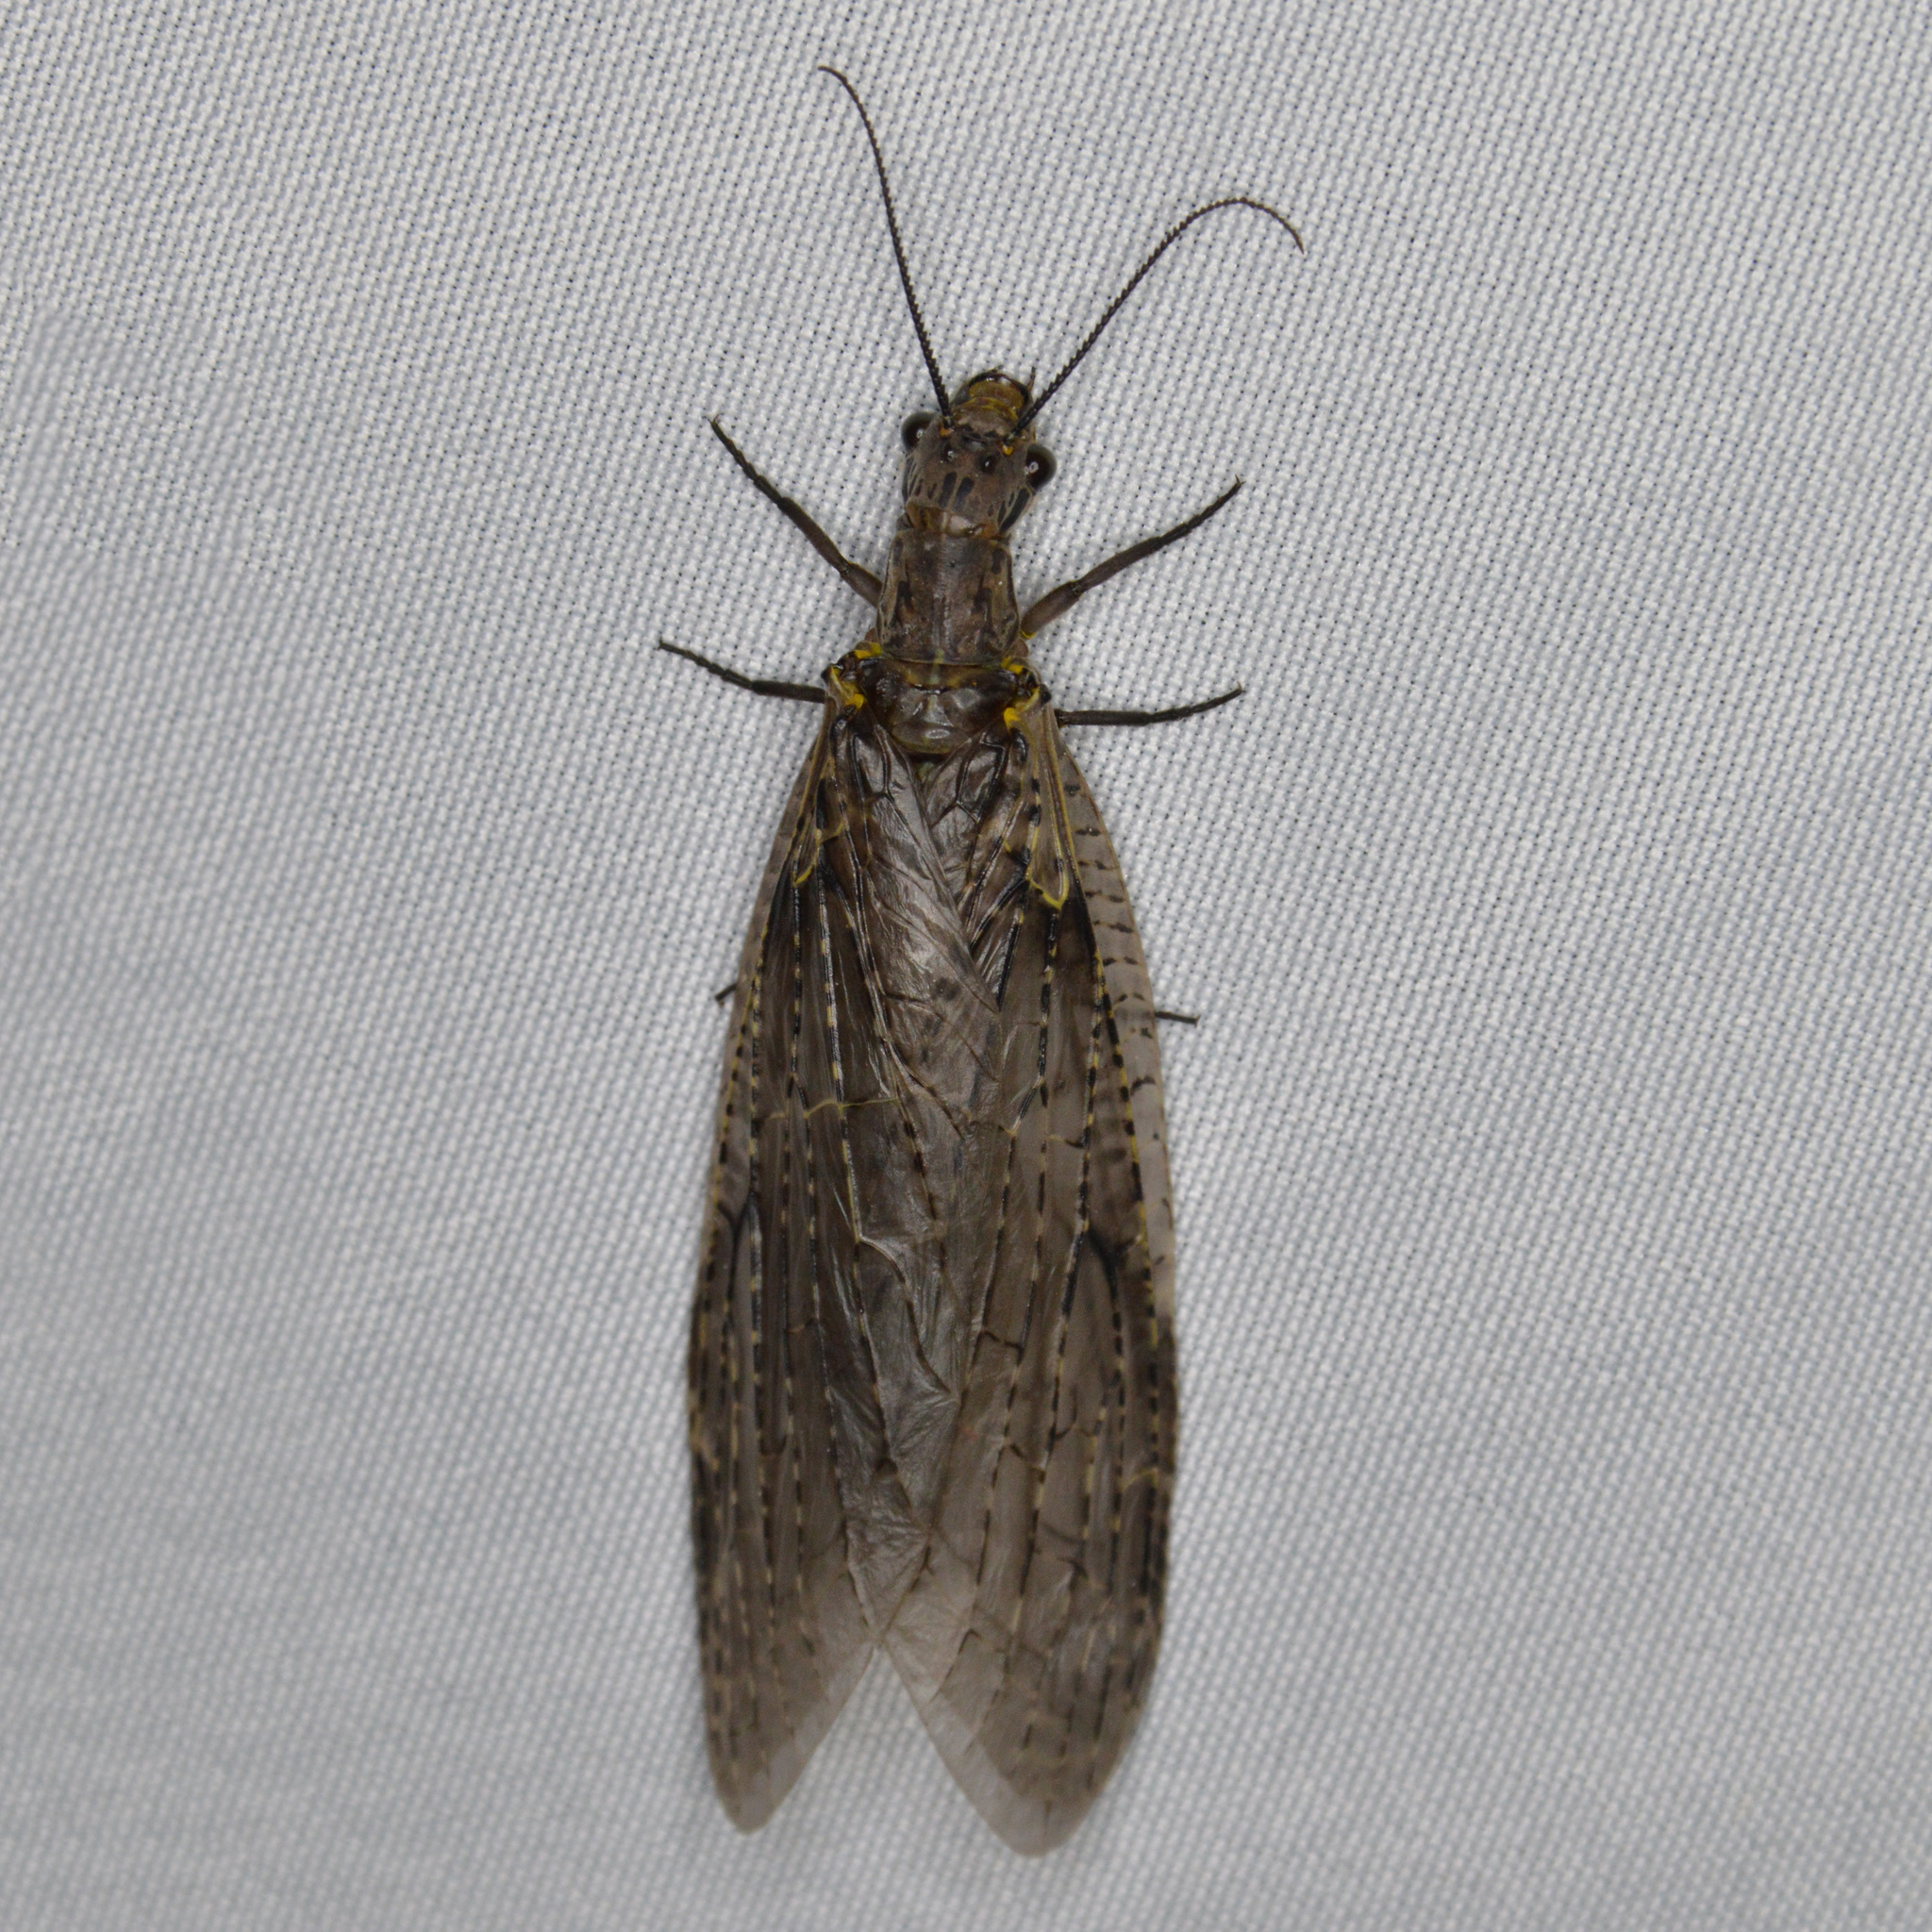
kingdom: Animalia
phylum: Arthropoda
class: Insecta
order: Megaloptera
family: Corydalidae
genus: Chauliodes
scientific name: Chauliodes rastricornis
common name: Spring fishfly
